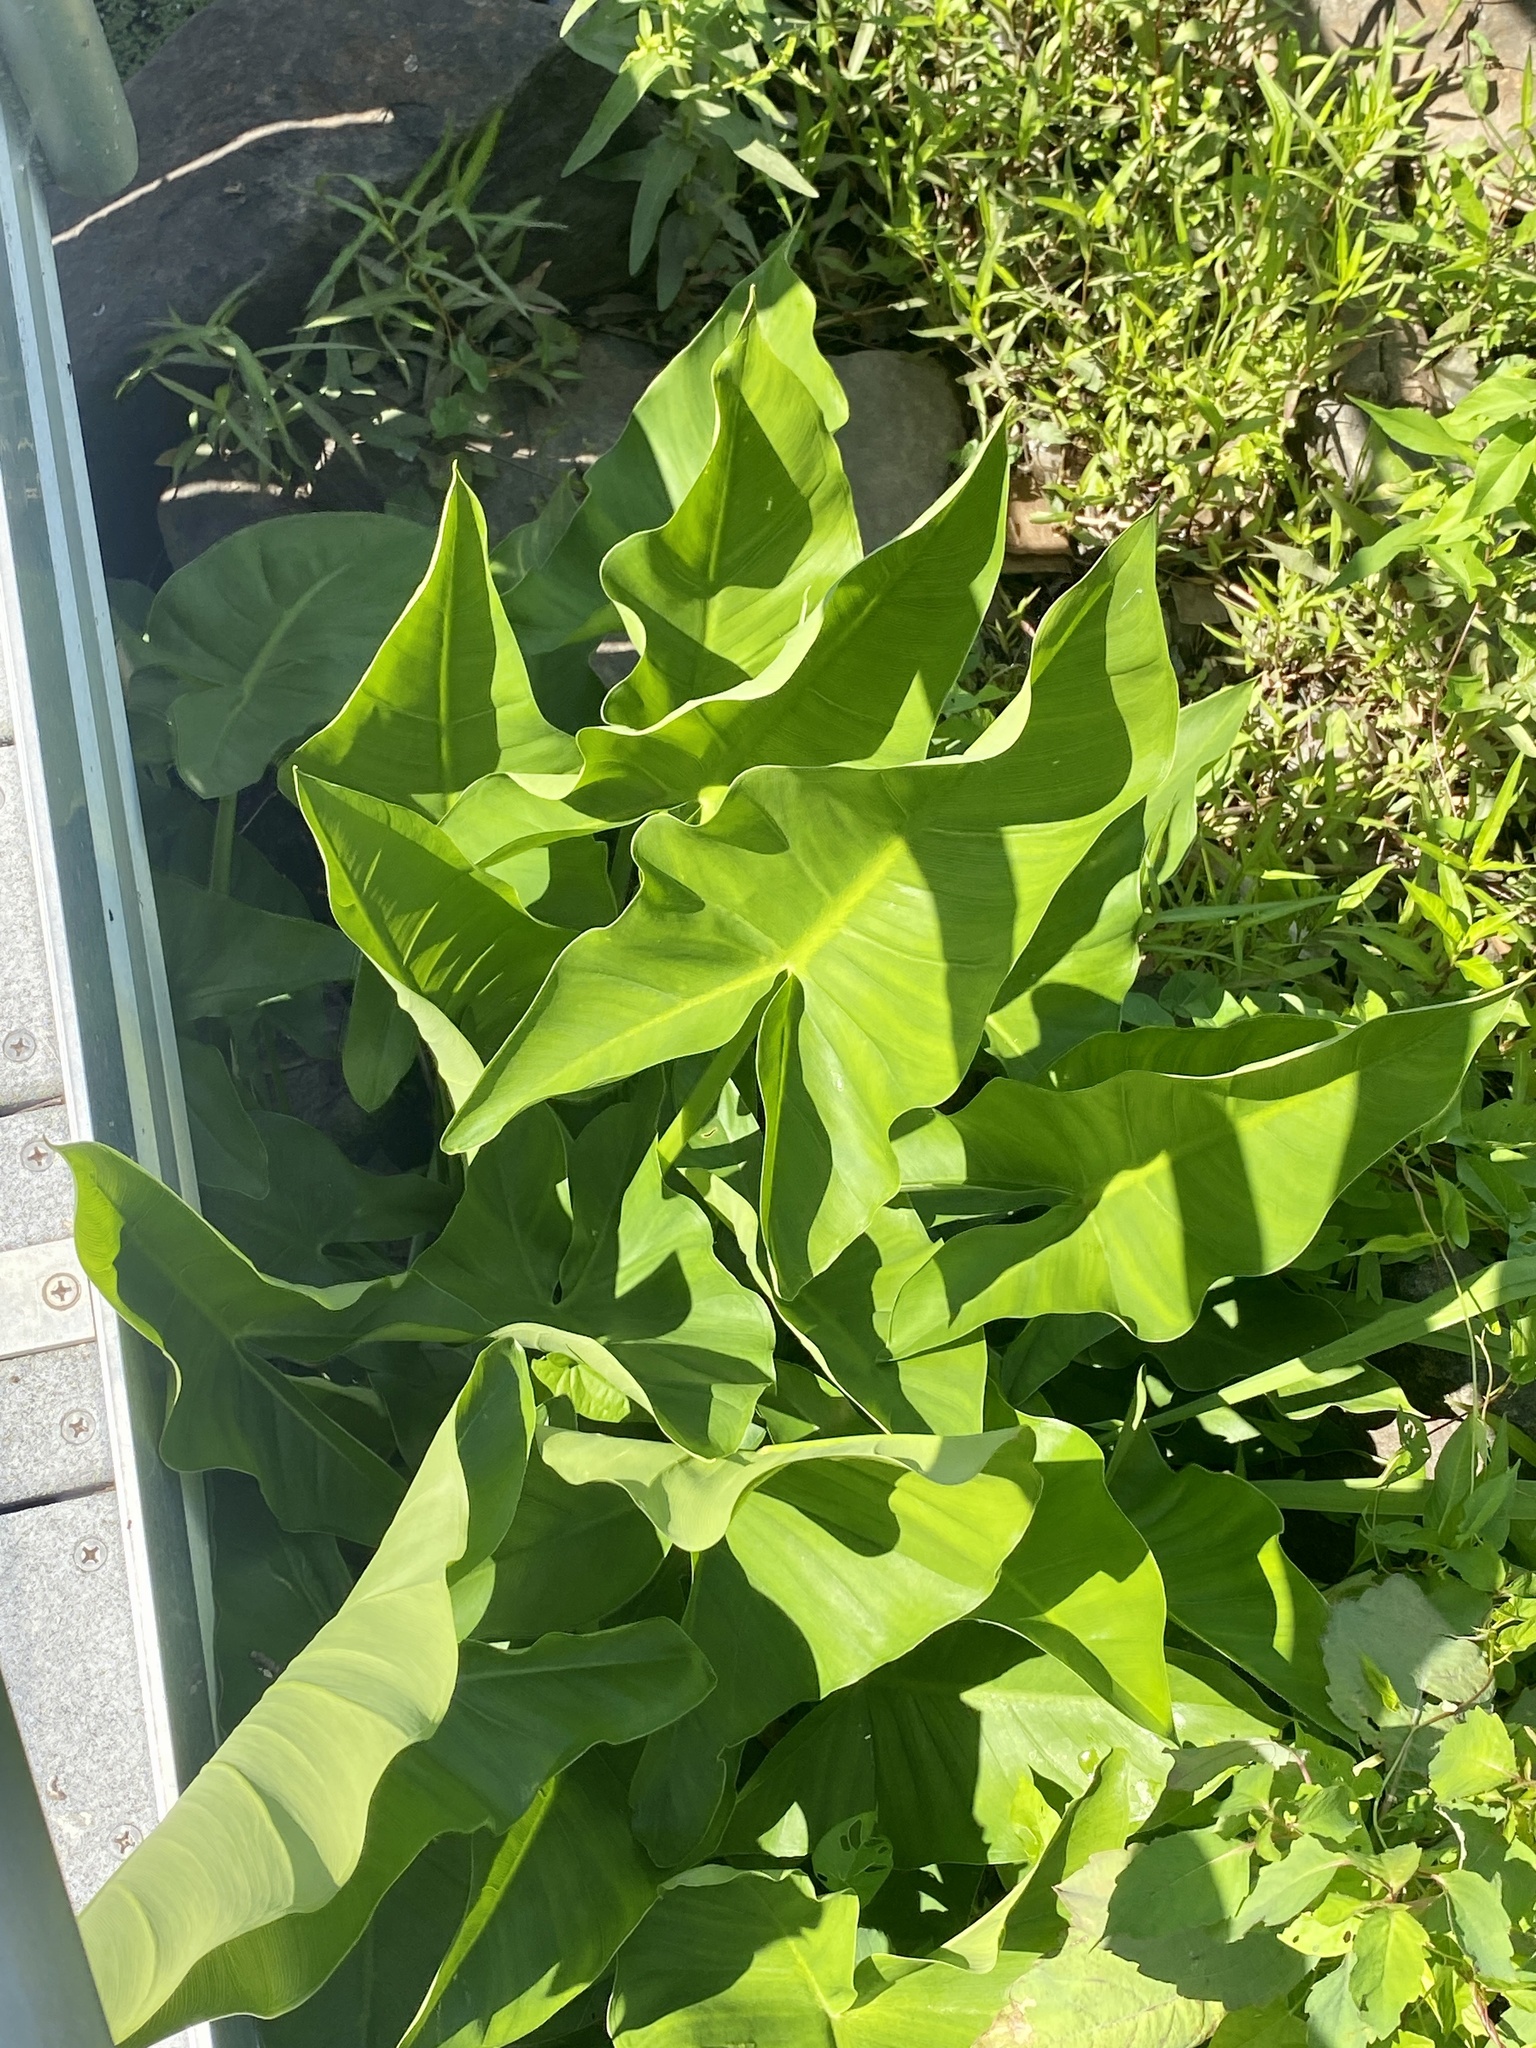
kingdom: Plantae
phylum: Tracheophyta
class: Liliopsida
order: Alismatales
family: Araceae
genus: Peltandra
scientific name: Peltandra virginica
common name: Arrow arum
